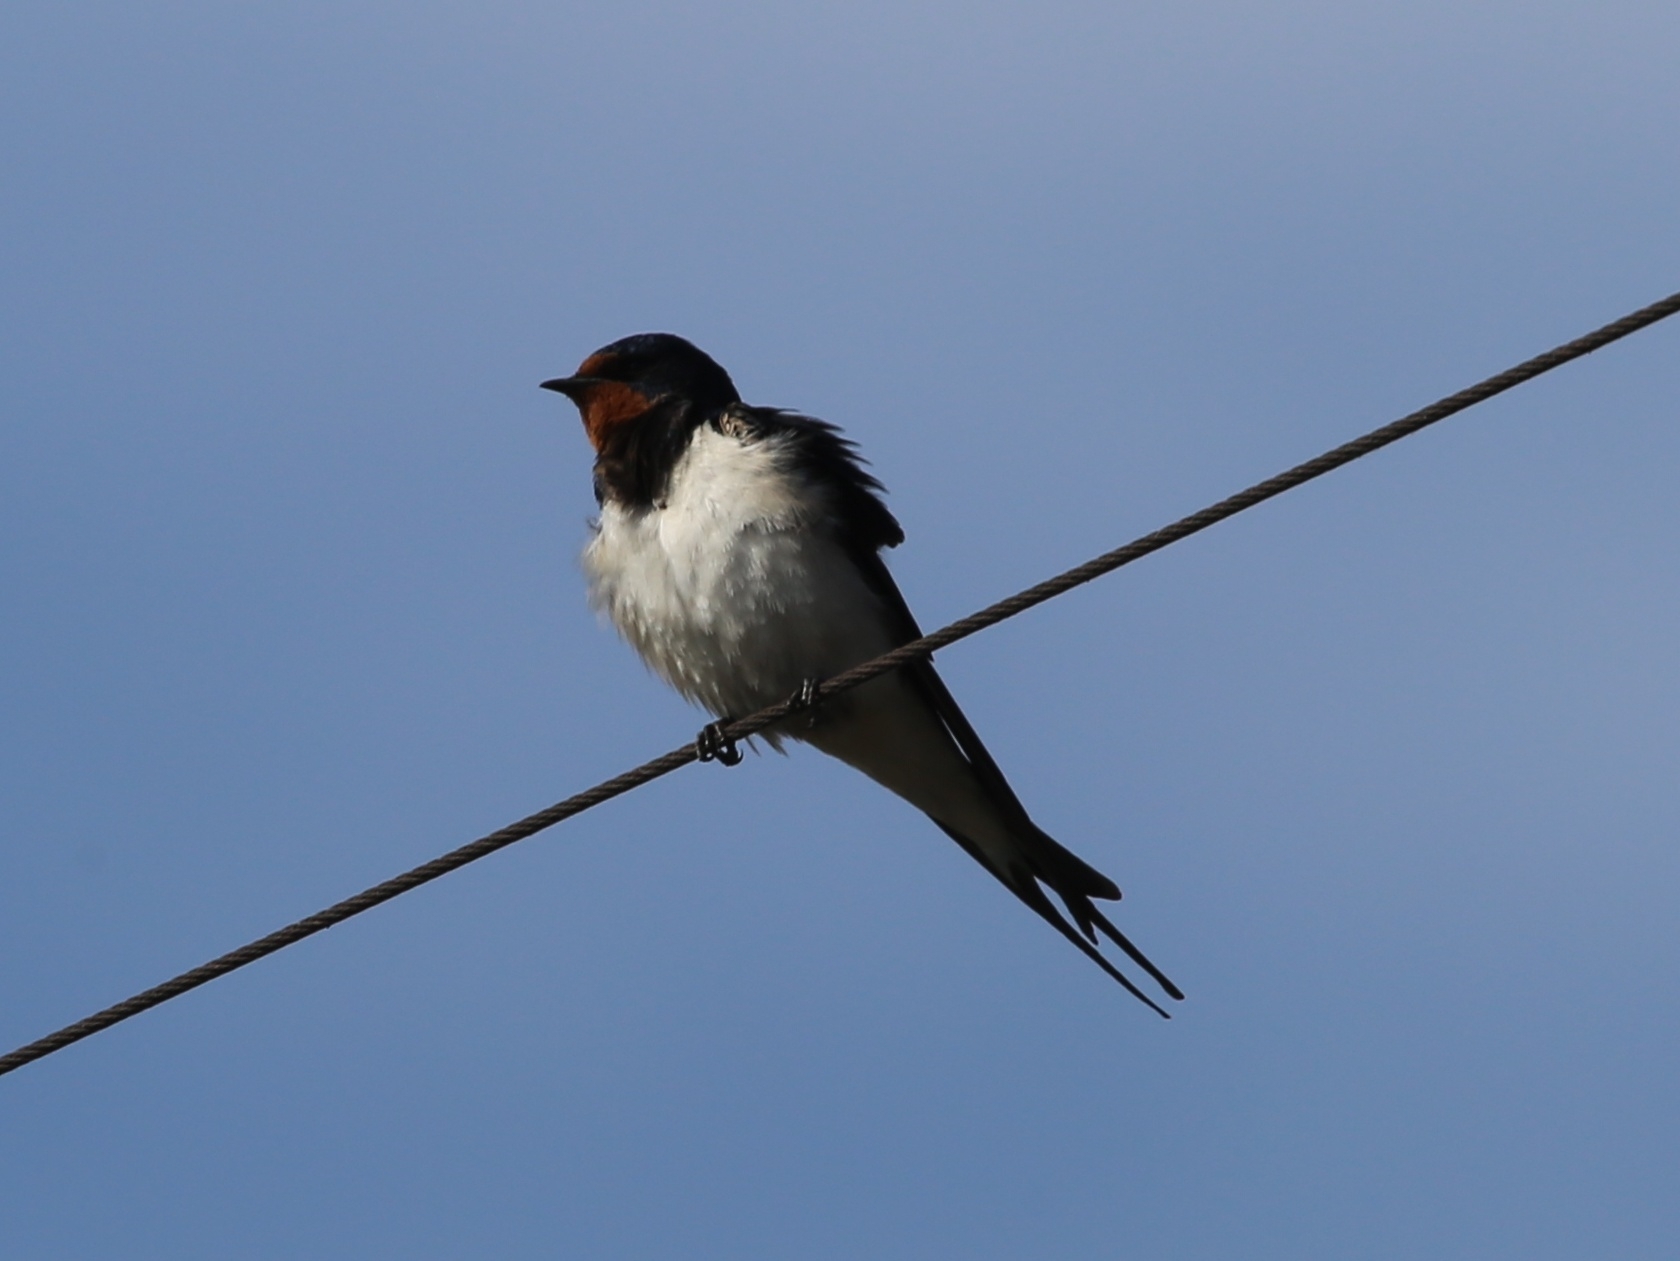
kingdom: Animalia
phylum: Chordata
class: Aves
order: Passeriformes
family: Hirundinidae
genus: Hirundo
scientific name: Hirundo rustica
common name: Barn swallow
